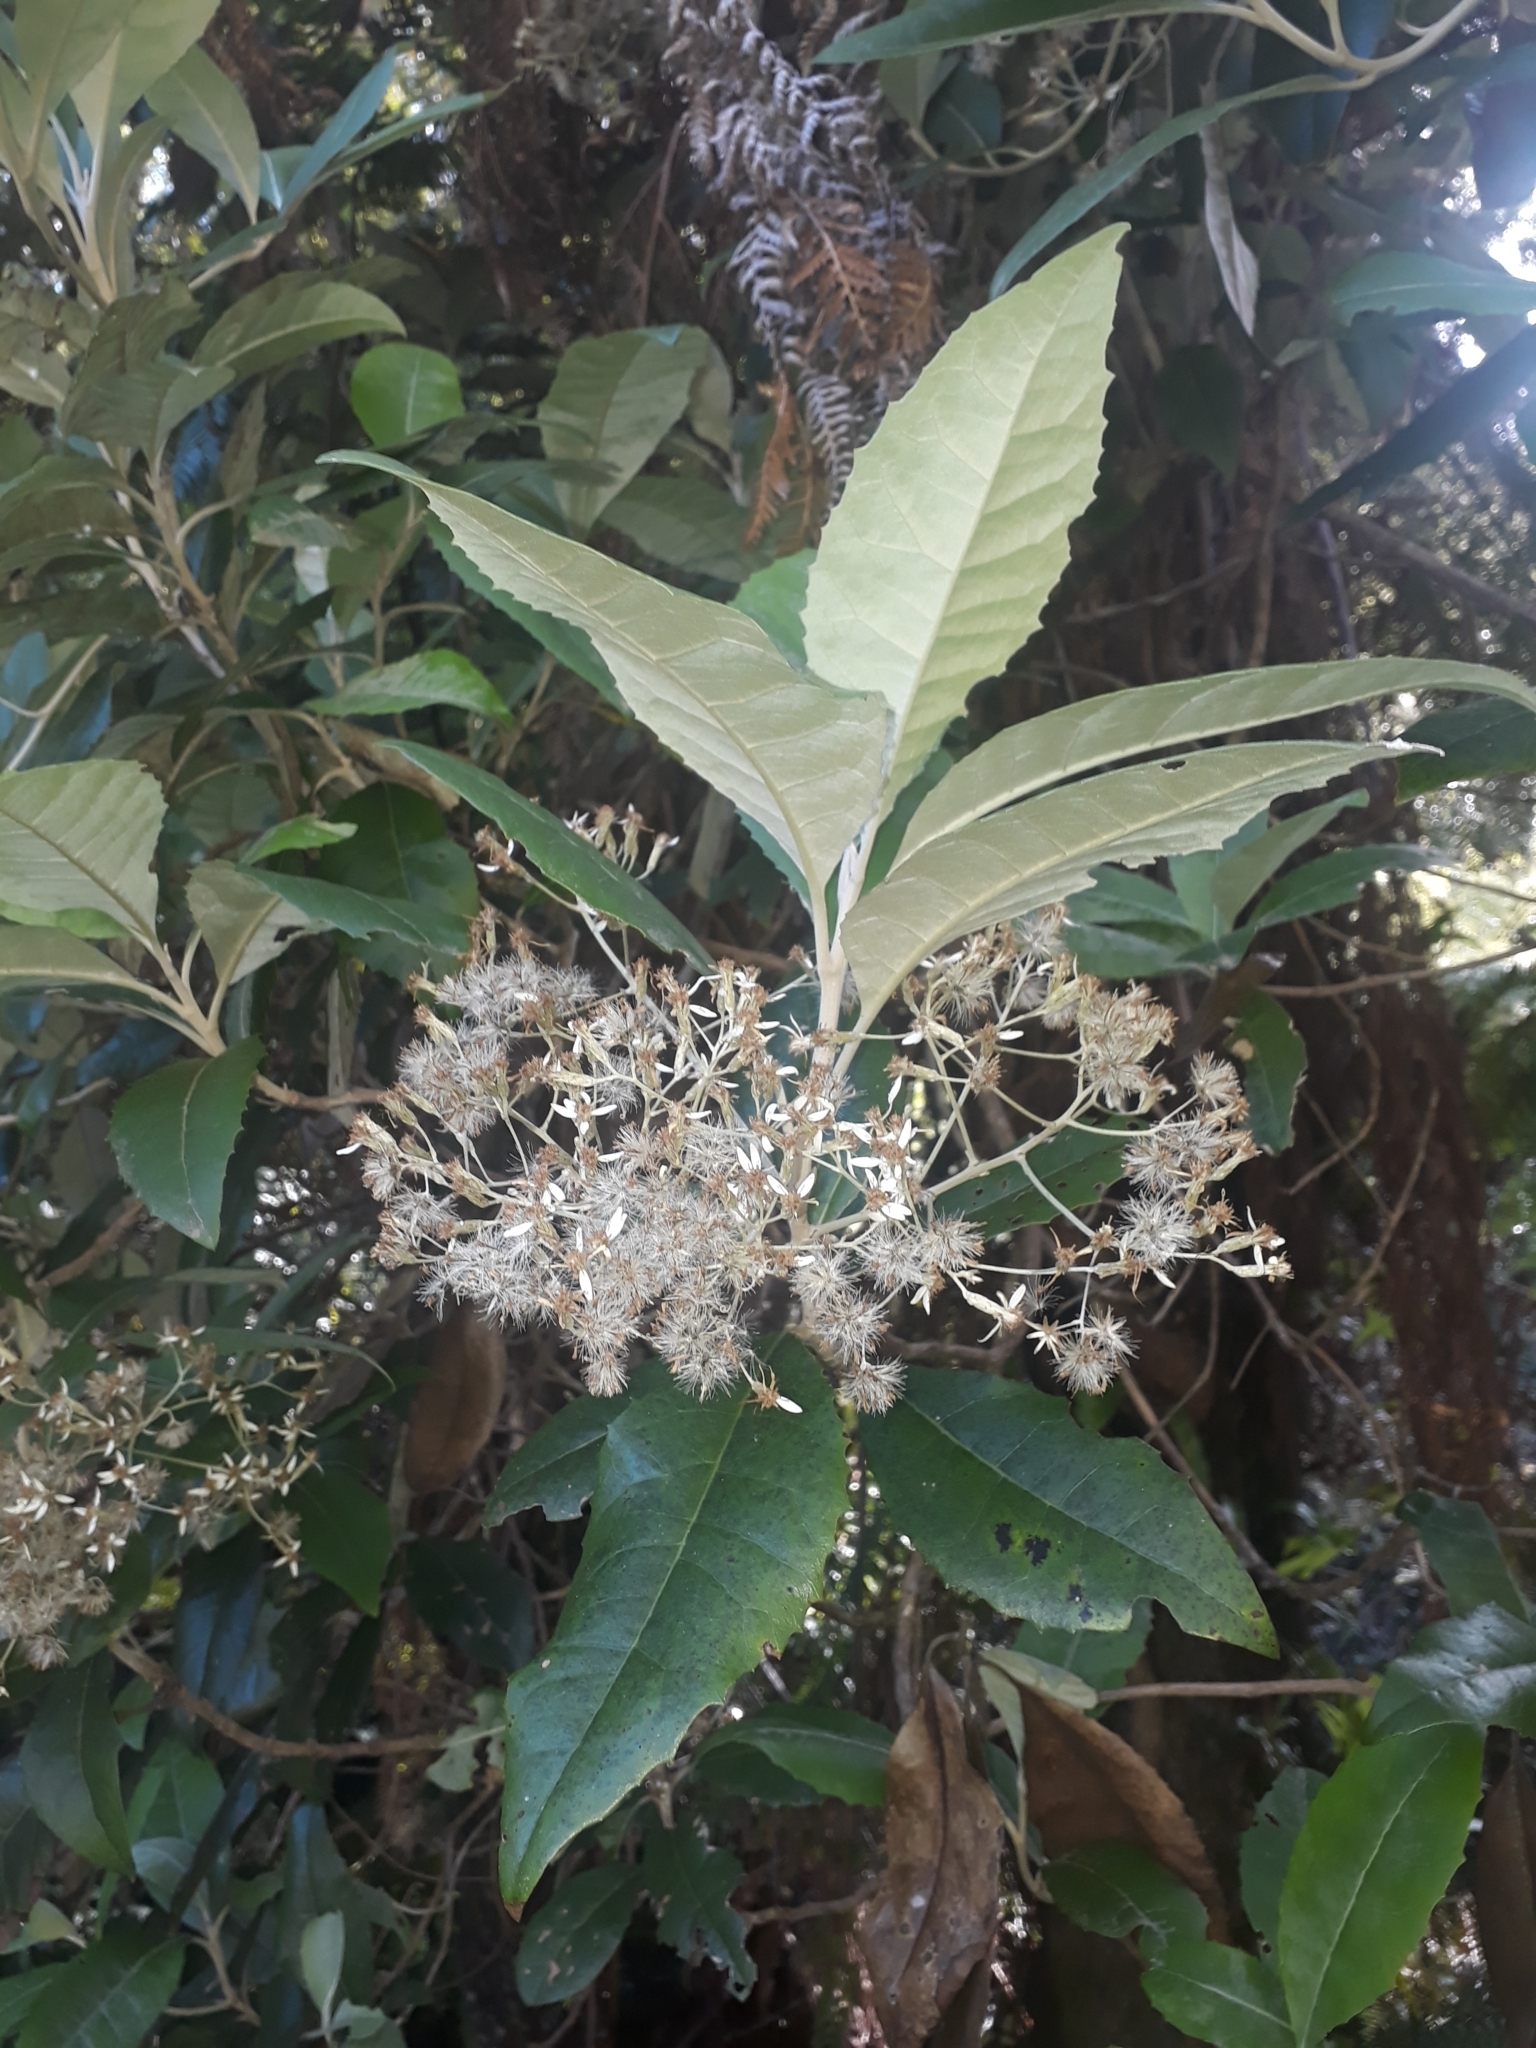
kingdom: Plantae
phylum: Tracheophyta
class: Magnoliopsida
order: Asterales
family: Asteraceae
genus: Olearia
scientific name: Olearia argophylla
